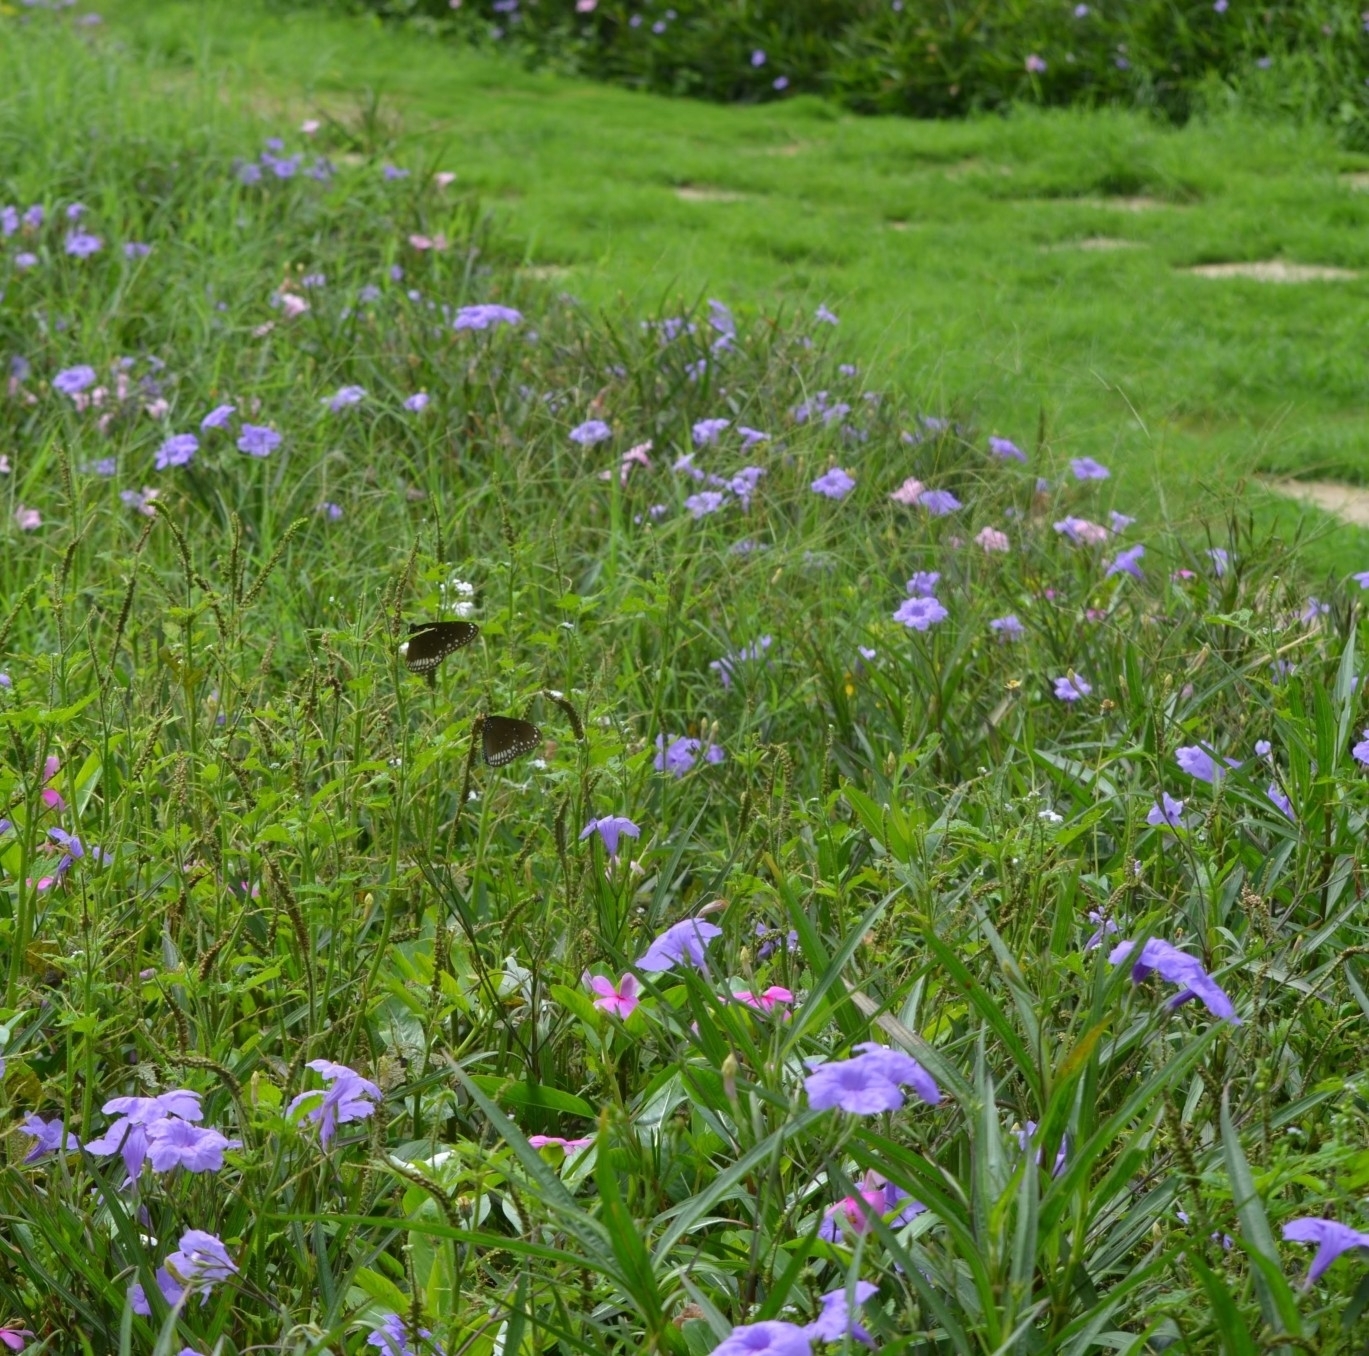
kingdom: Animalia
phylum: Arthropoda
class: Insecta
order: Lepidoptera
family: Nymphalidae
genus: Euploea
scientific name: Euploea core
